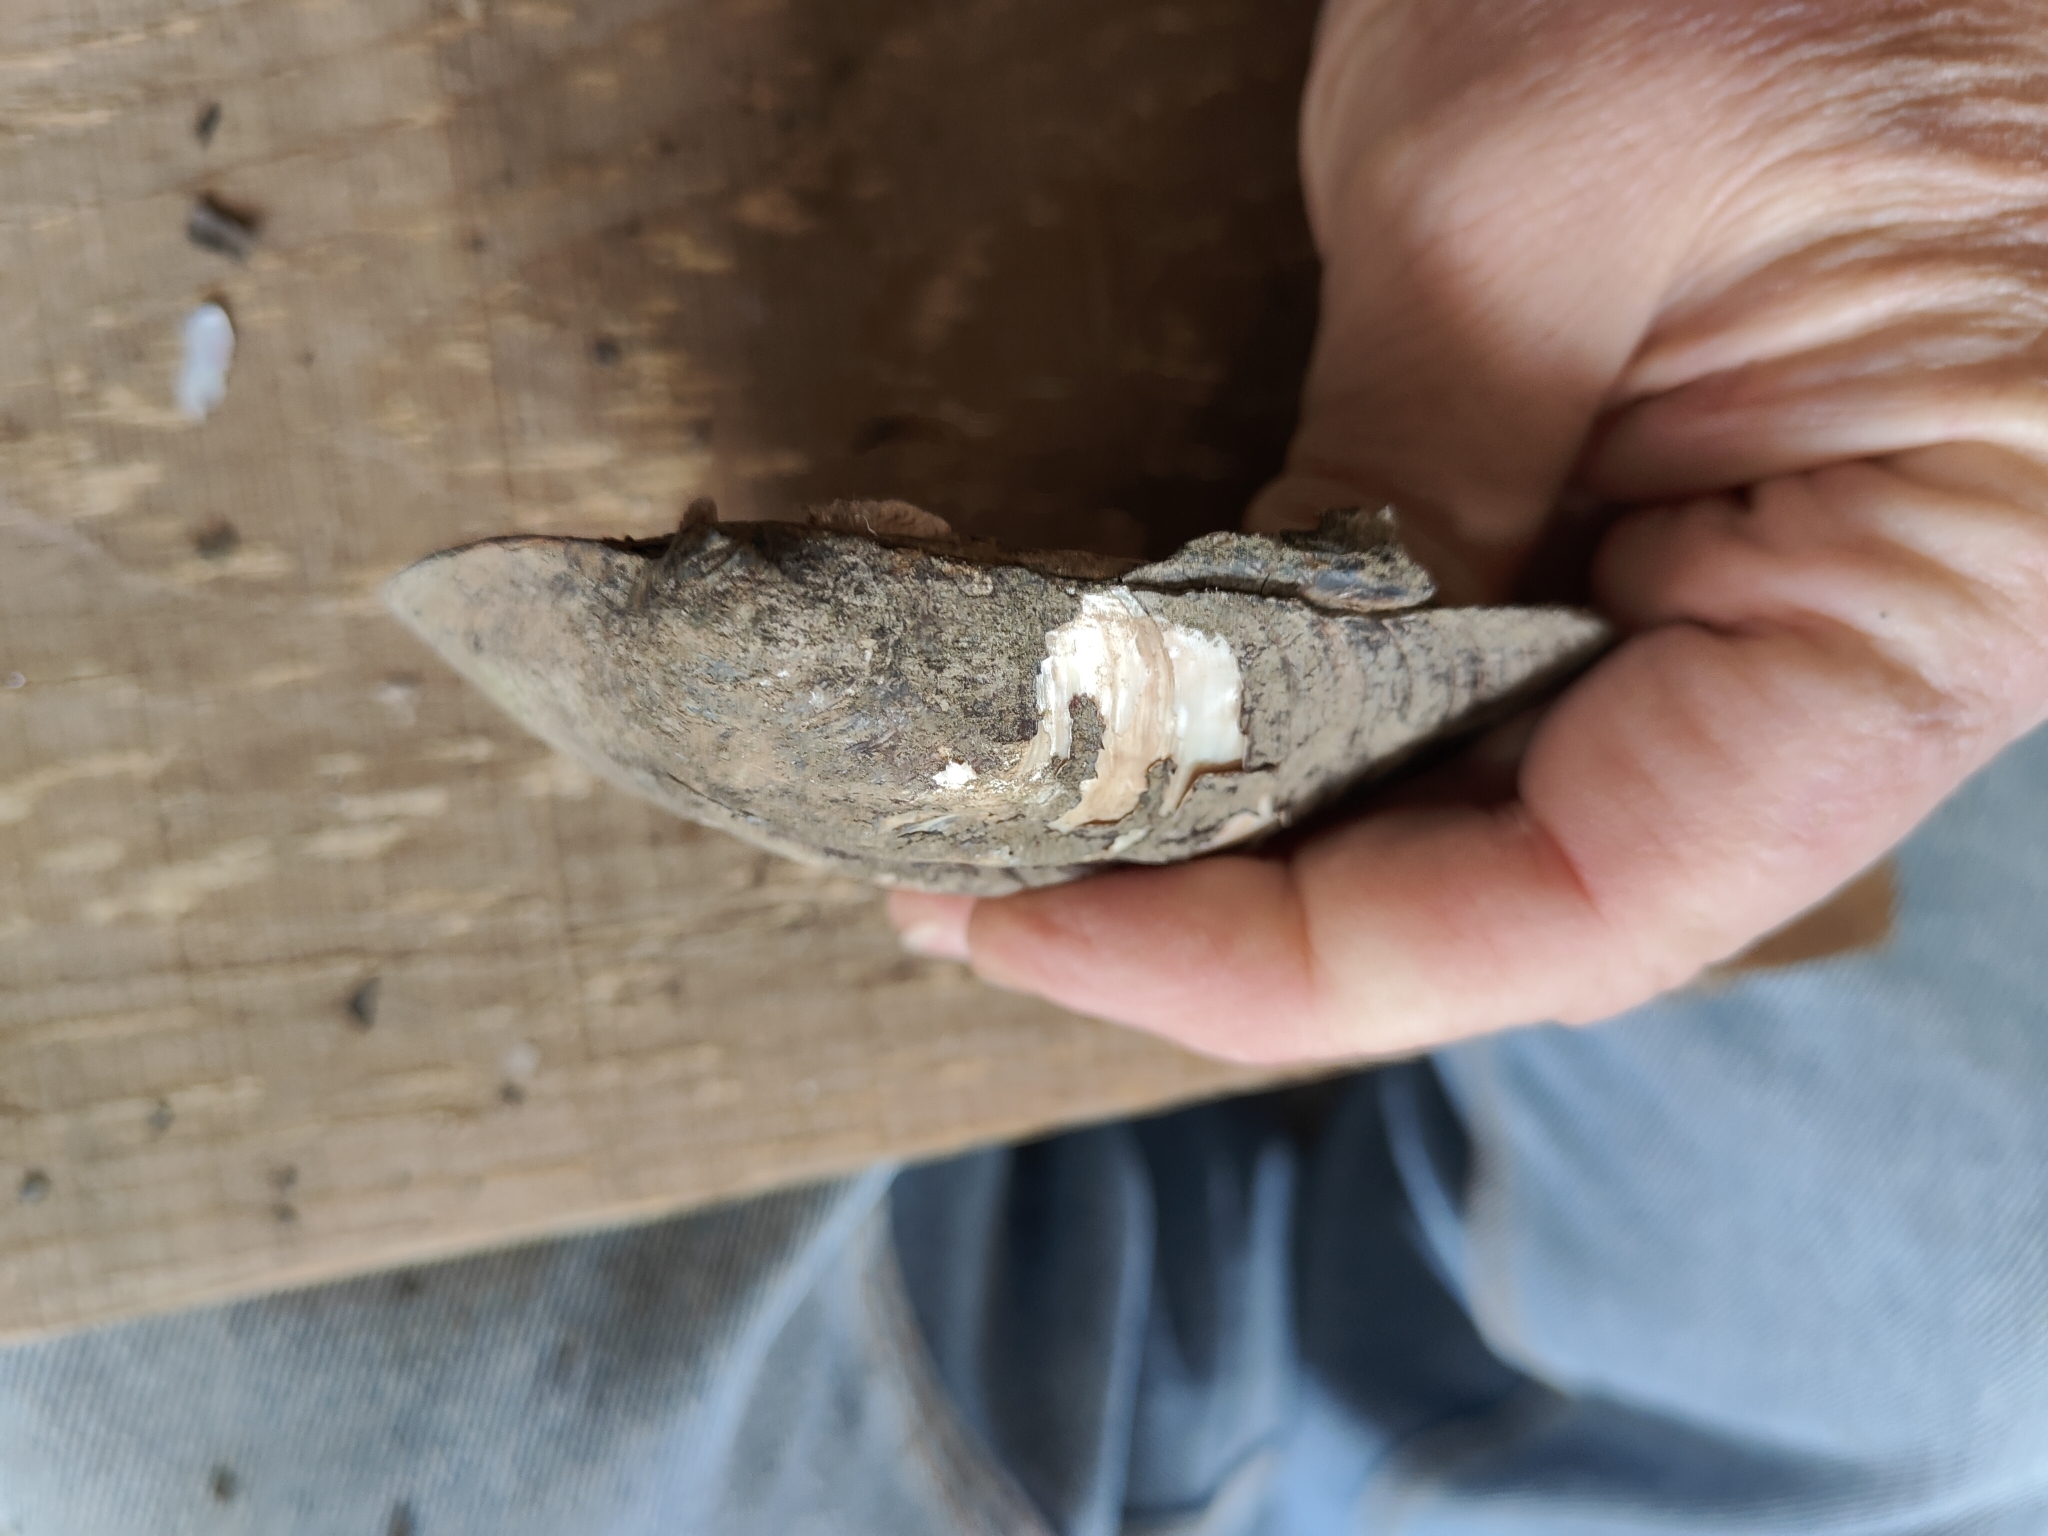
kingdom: Animalia
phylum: Mollusca
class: Bivalvia
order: Unionida
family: Unionidae
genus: Amblema
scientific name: Amblema plicata
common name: Threeridge
